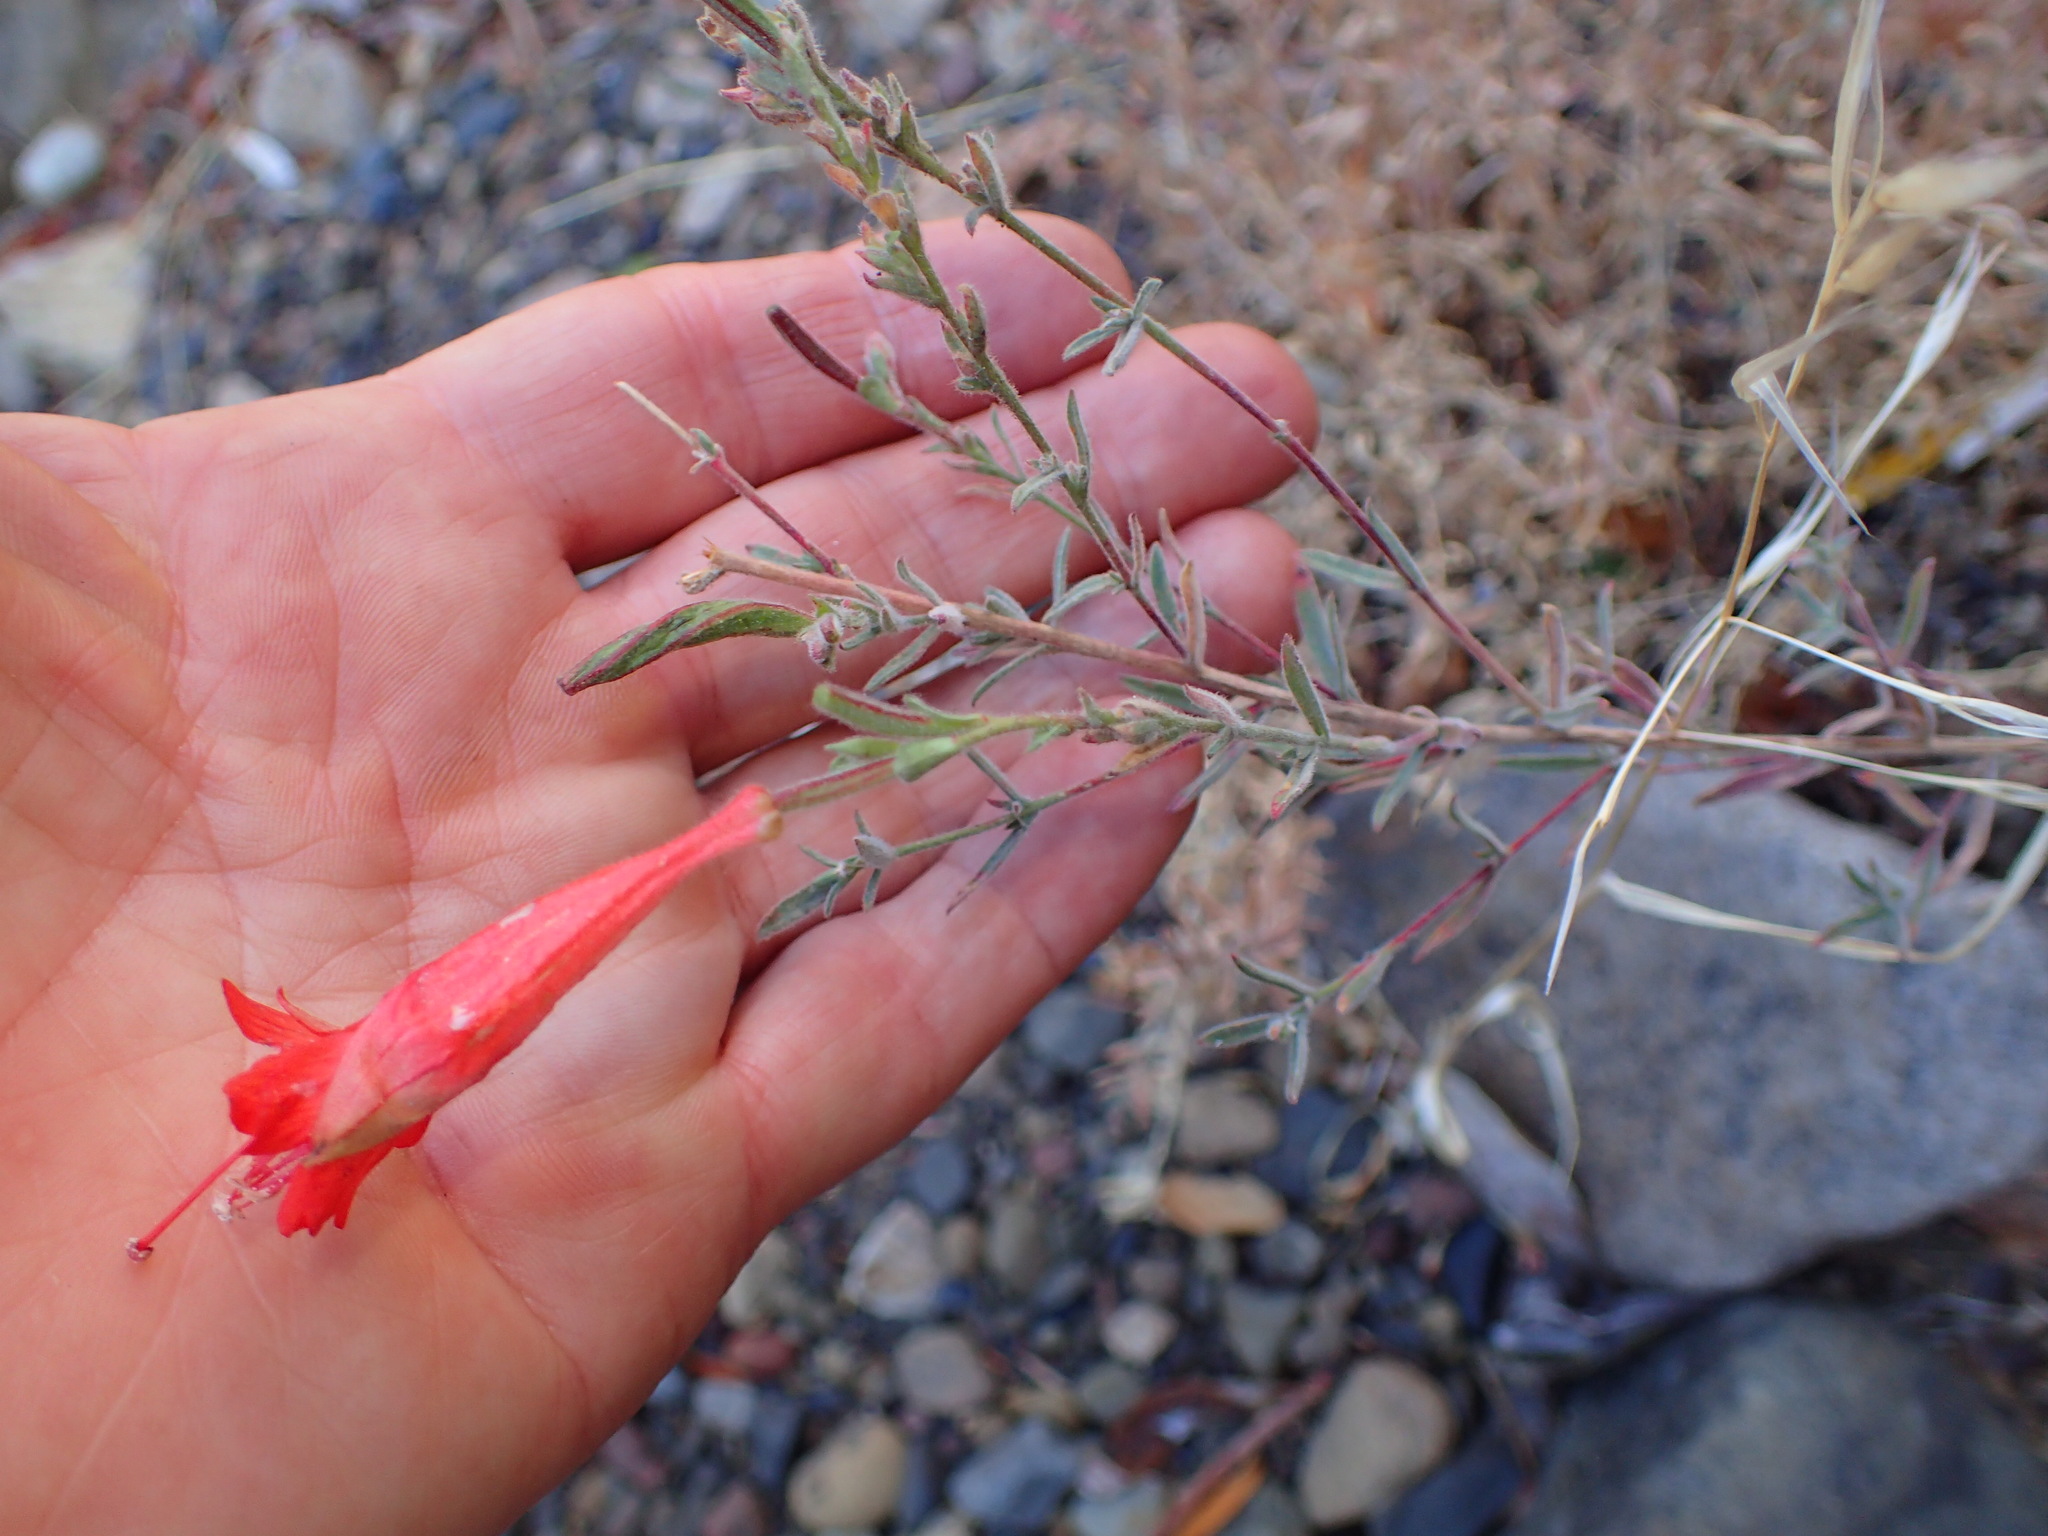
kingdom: Plantae
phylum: Tracheophyta
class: Magnoliopsida
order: Myrtales
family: Onagraceae
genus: Epilobium
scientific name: Epilobium canum
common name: California-fuchsia
